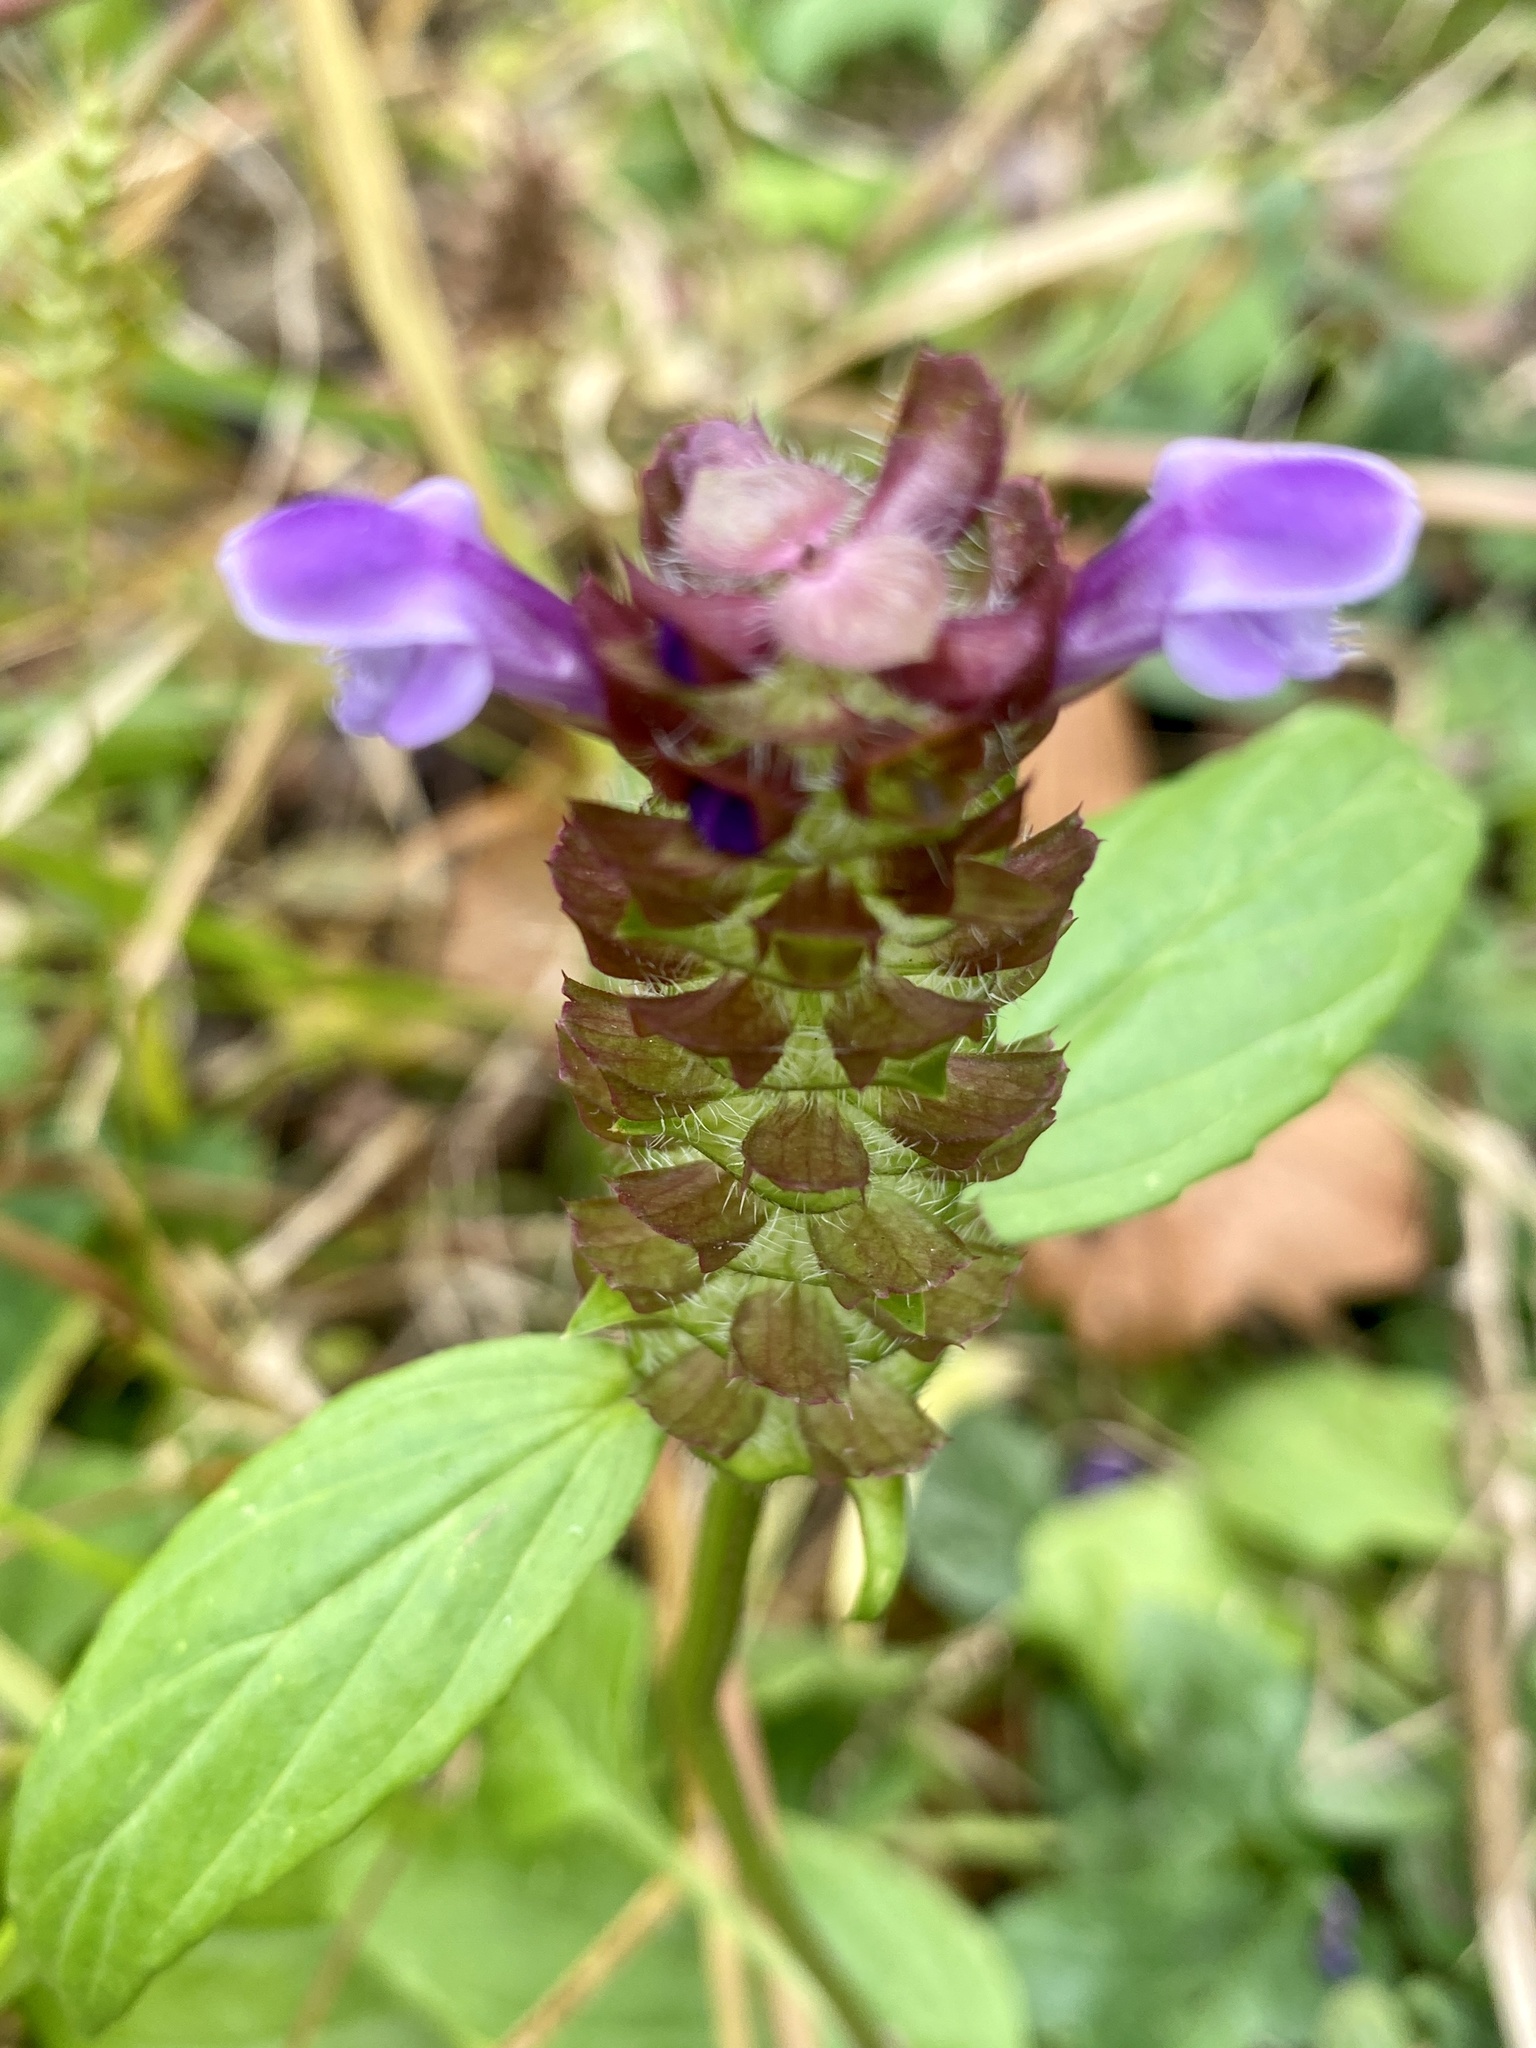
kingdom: Plantae
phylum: Tracheophyta
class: Magnoliopsida
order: Lamiales
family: Lamiaceae
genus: Prunella
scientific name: Prunella vulgaris
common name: Heal-all
